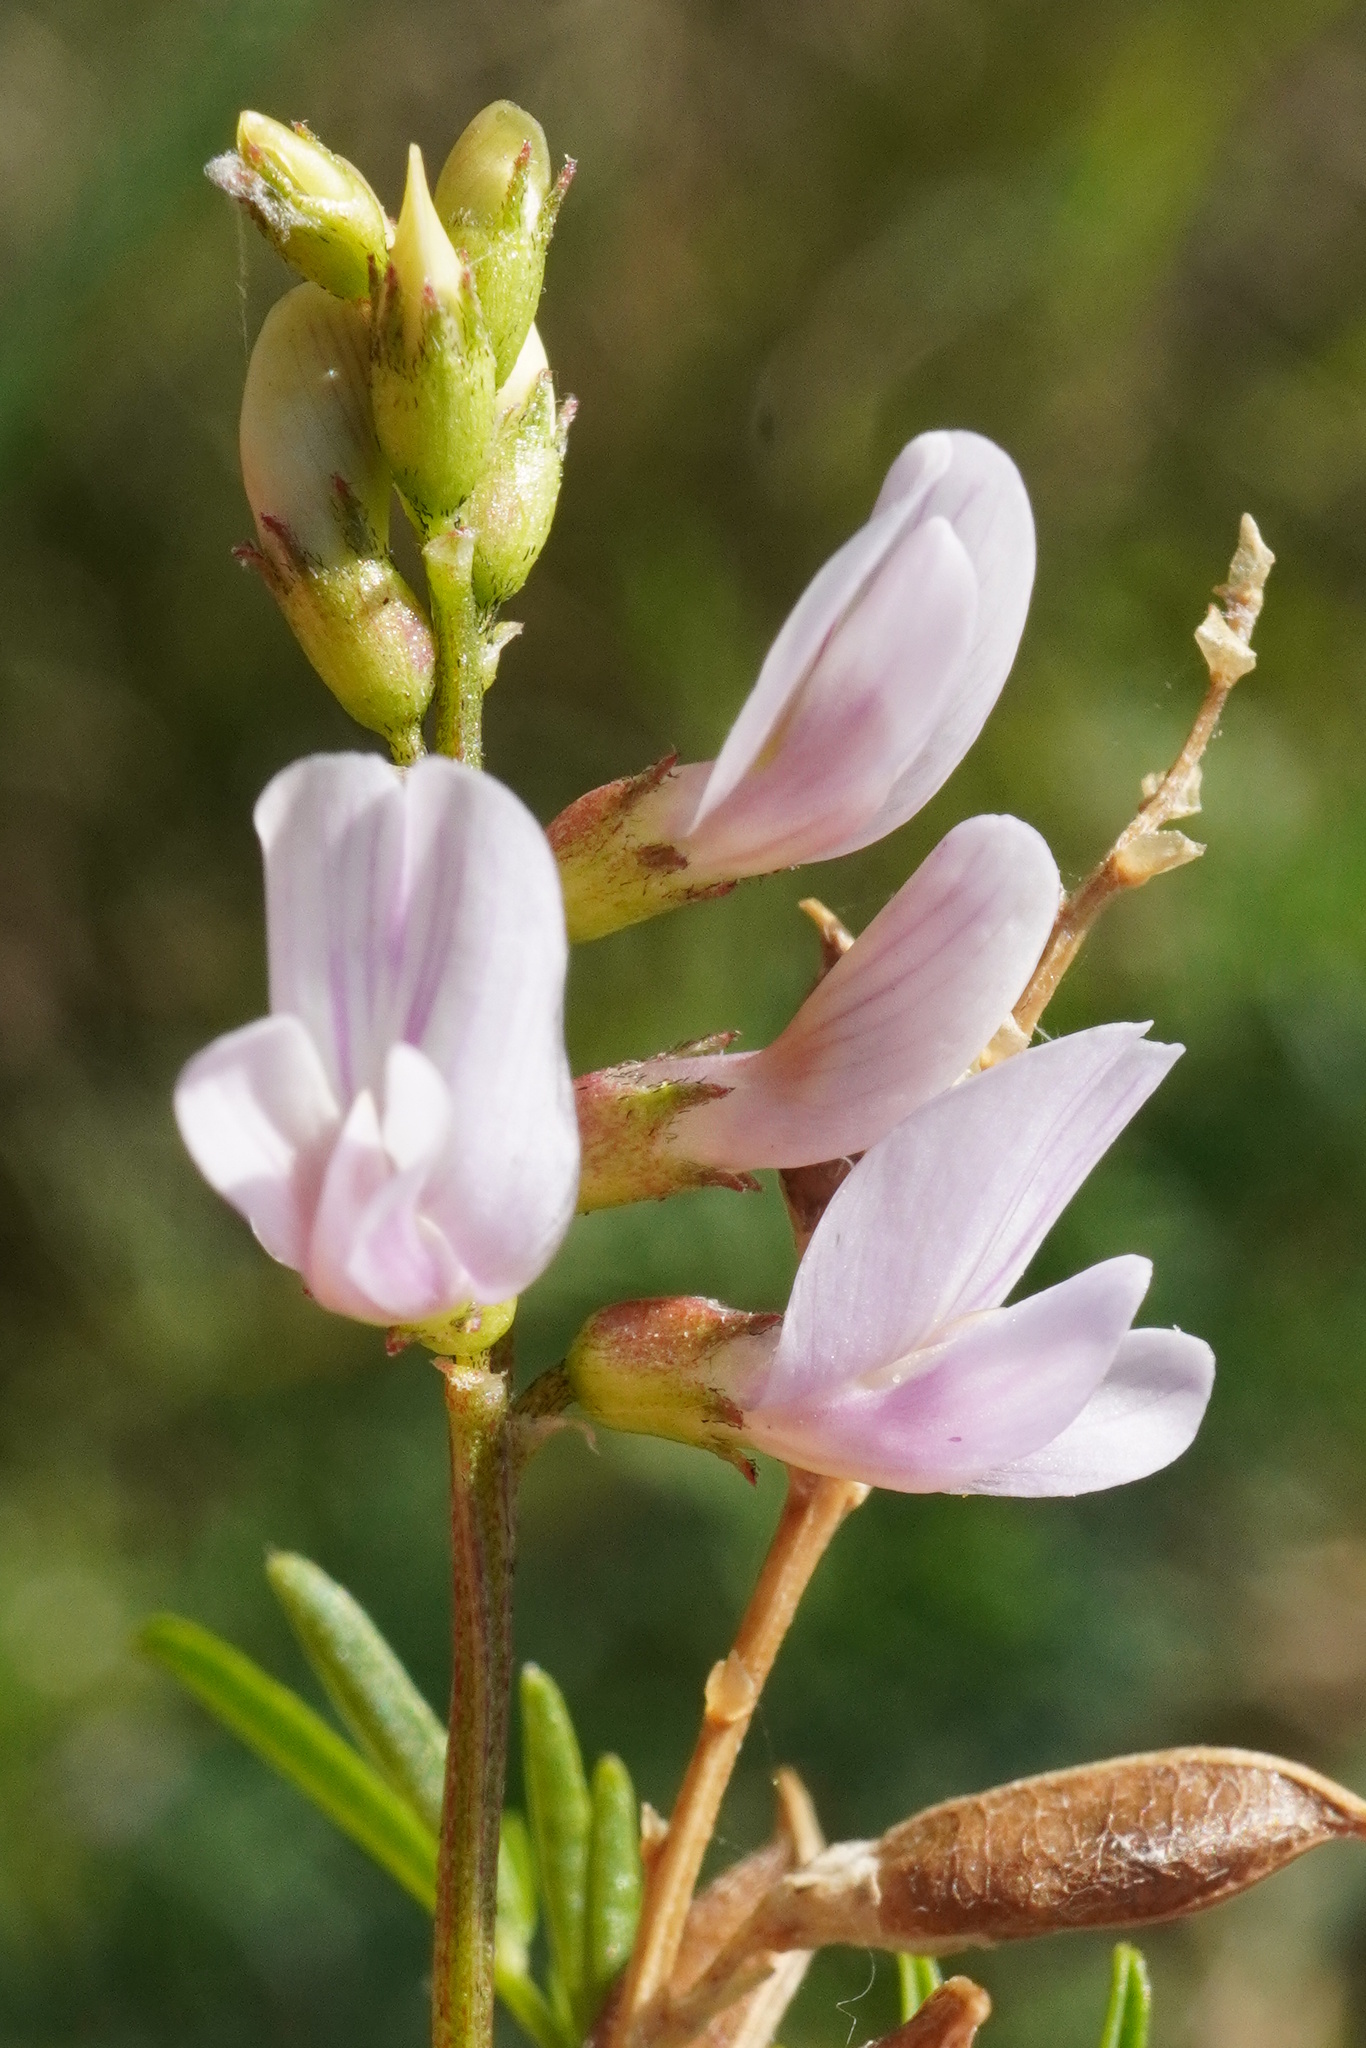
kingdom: Plantae
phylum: Tracheophyta
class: Magnoliopsida
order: Fabales
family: Fabaceae
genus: Astragalus
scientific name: Astragalus sulcatus
